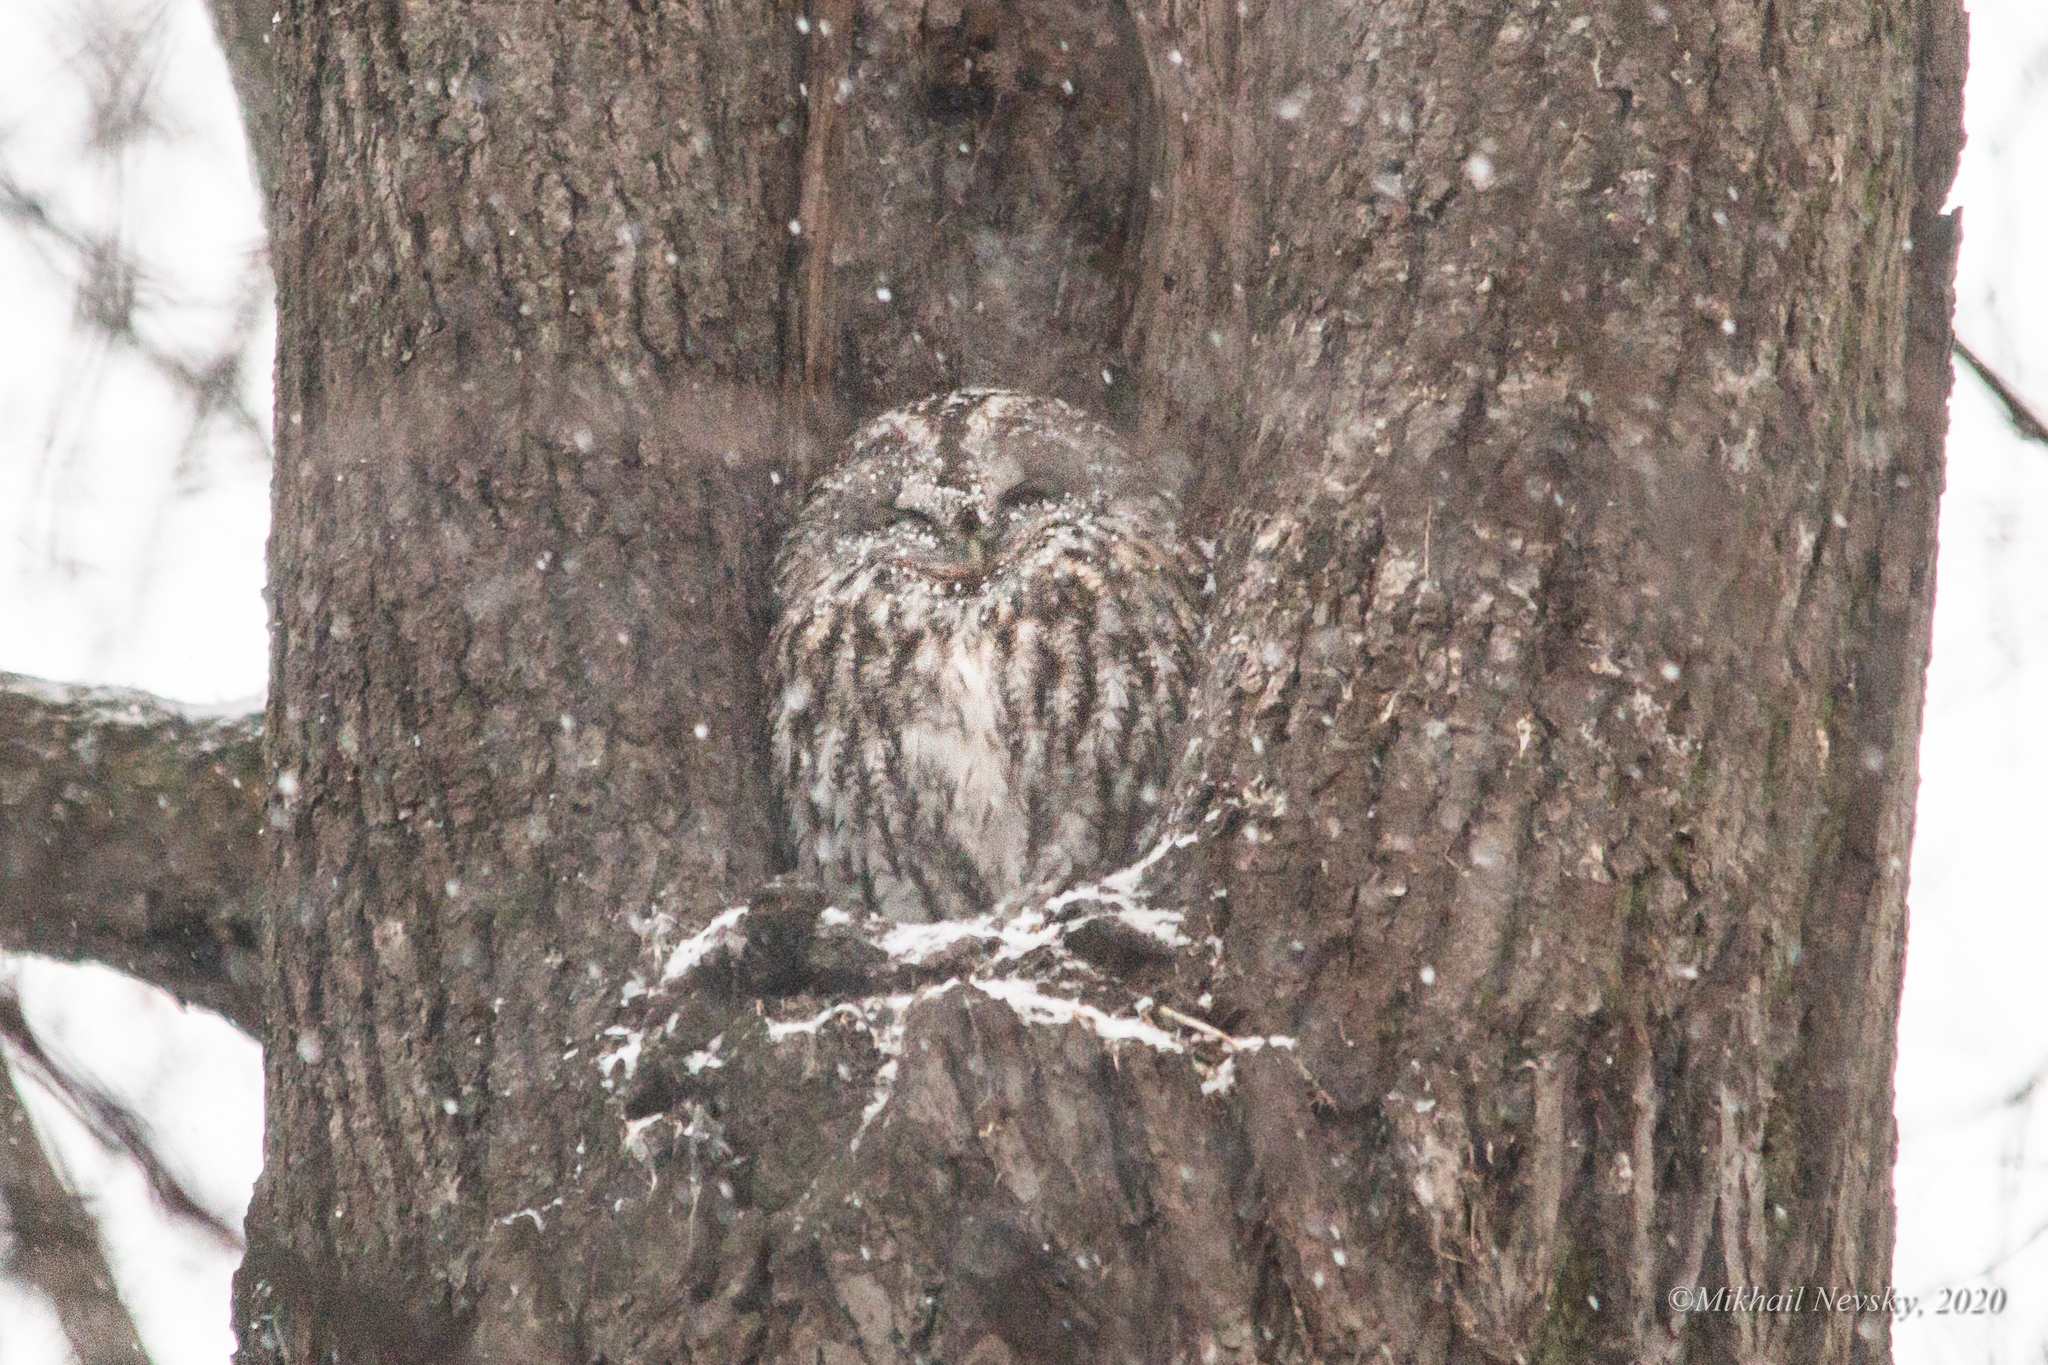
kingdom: Animalia
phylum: Chordata
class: Aves
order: Strigiformes
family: Strigidae
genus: Strix
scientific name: Strix aluco
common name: Tawny owl
